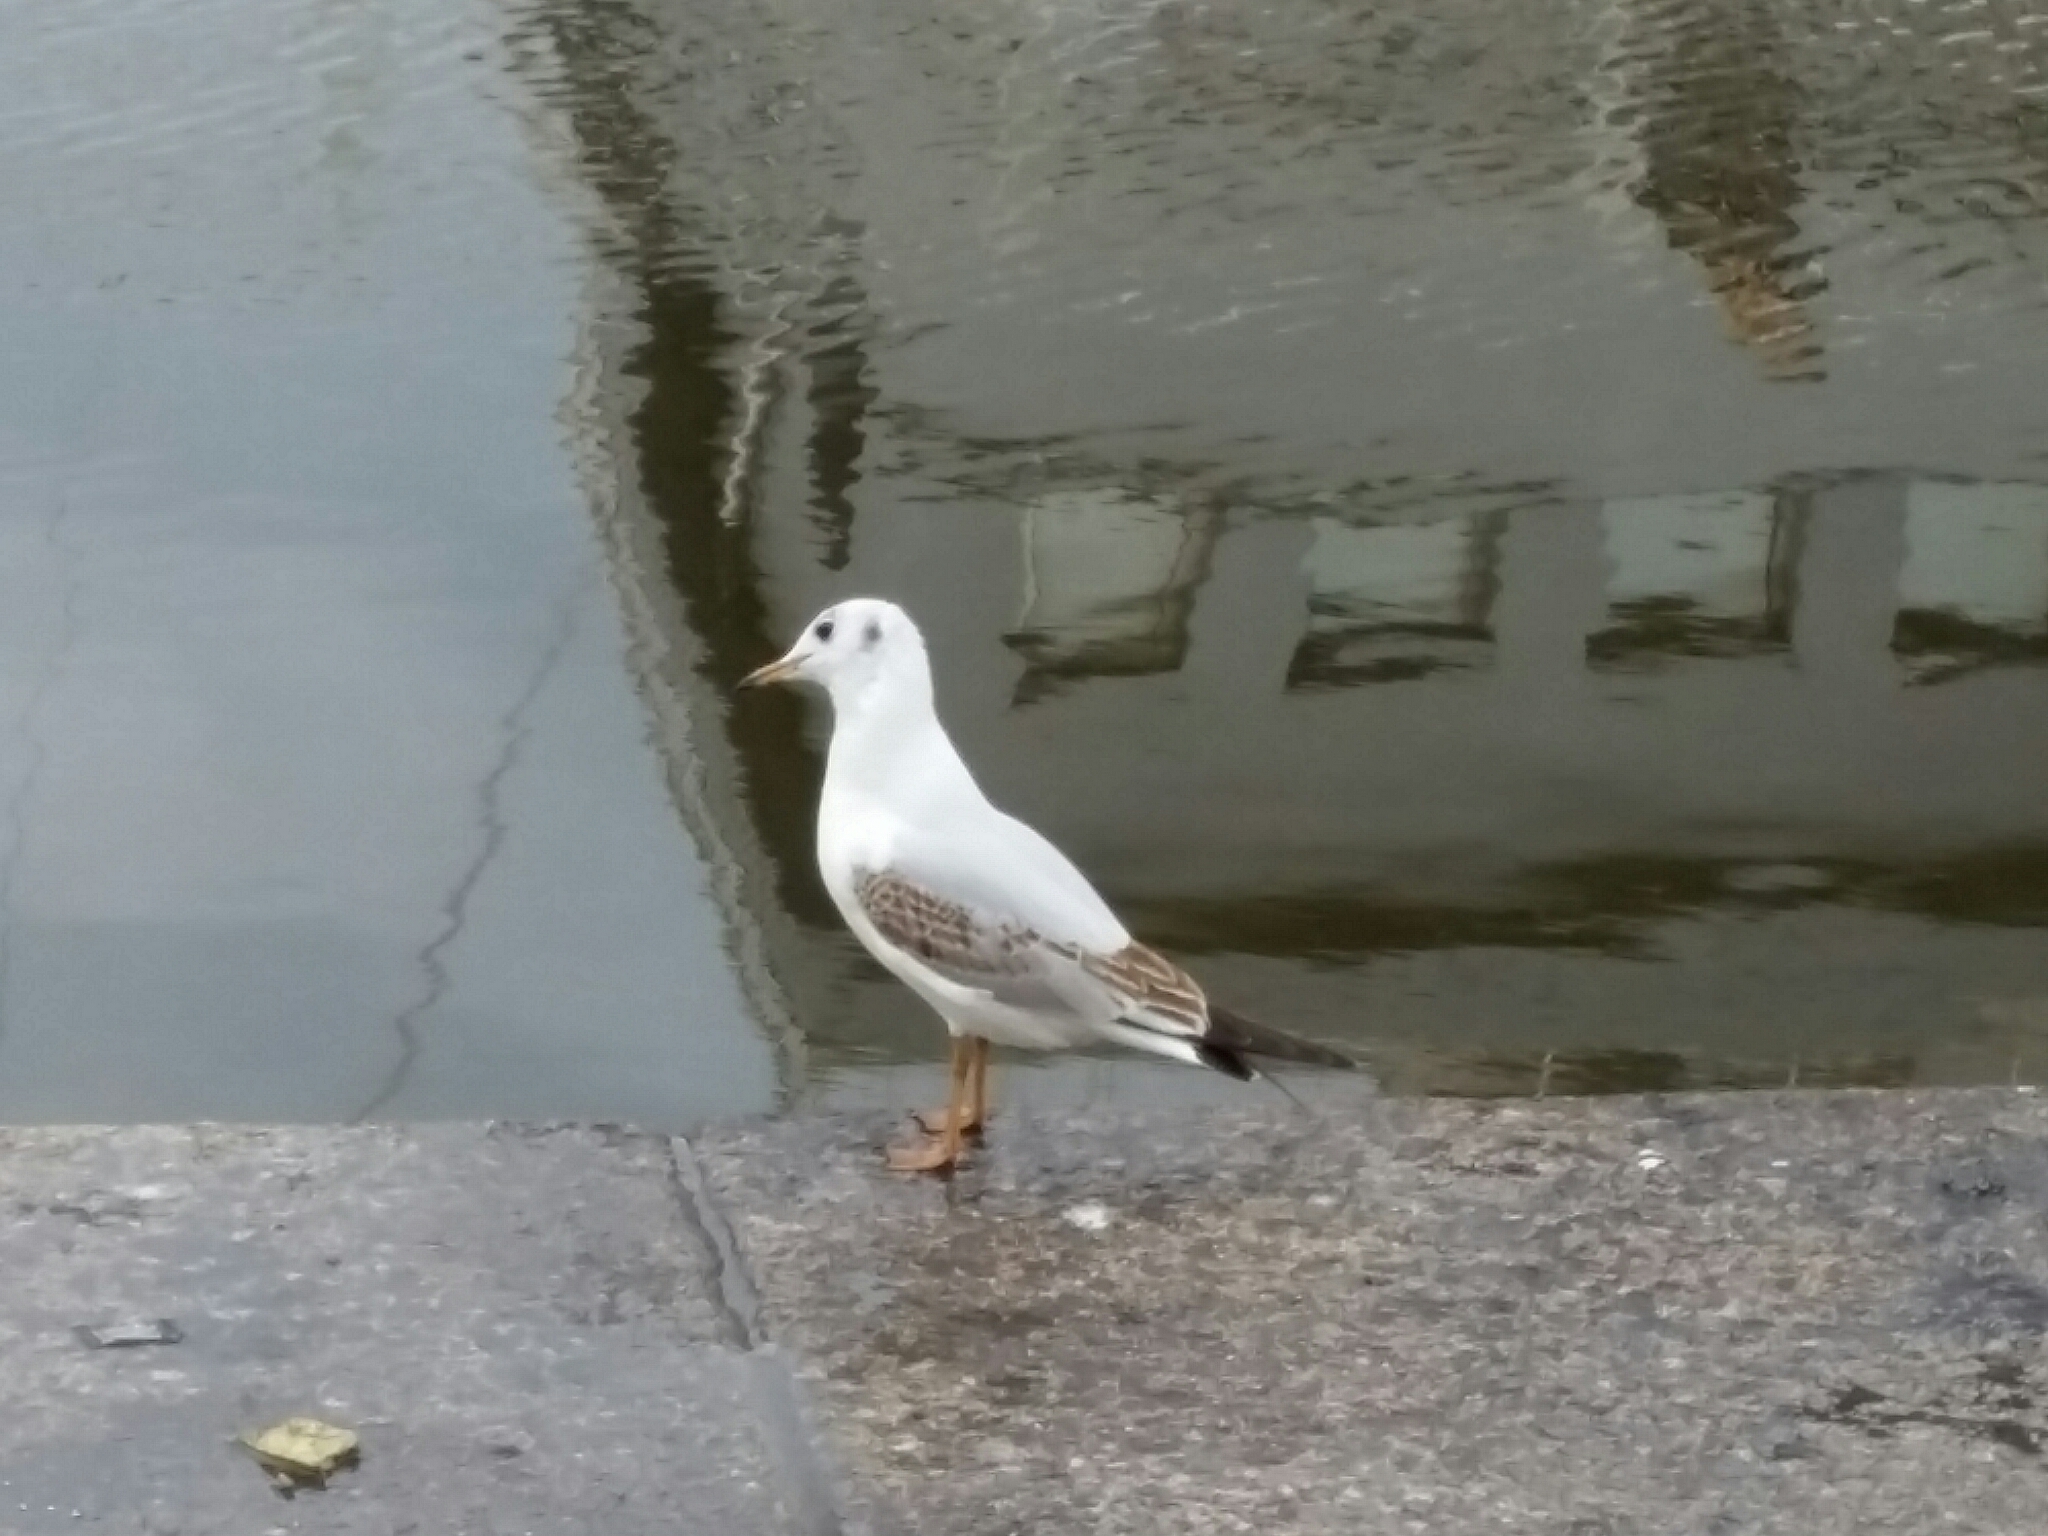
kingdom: Animalia
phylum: Chordata
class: Aves
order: Charadriiformes
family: Laridae
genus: Chroicocephalus
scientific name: Chroicocephalus ridibundus
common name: Black-headed gull
